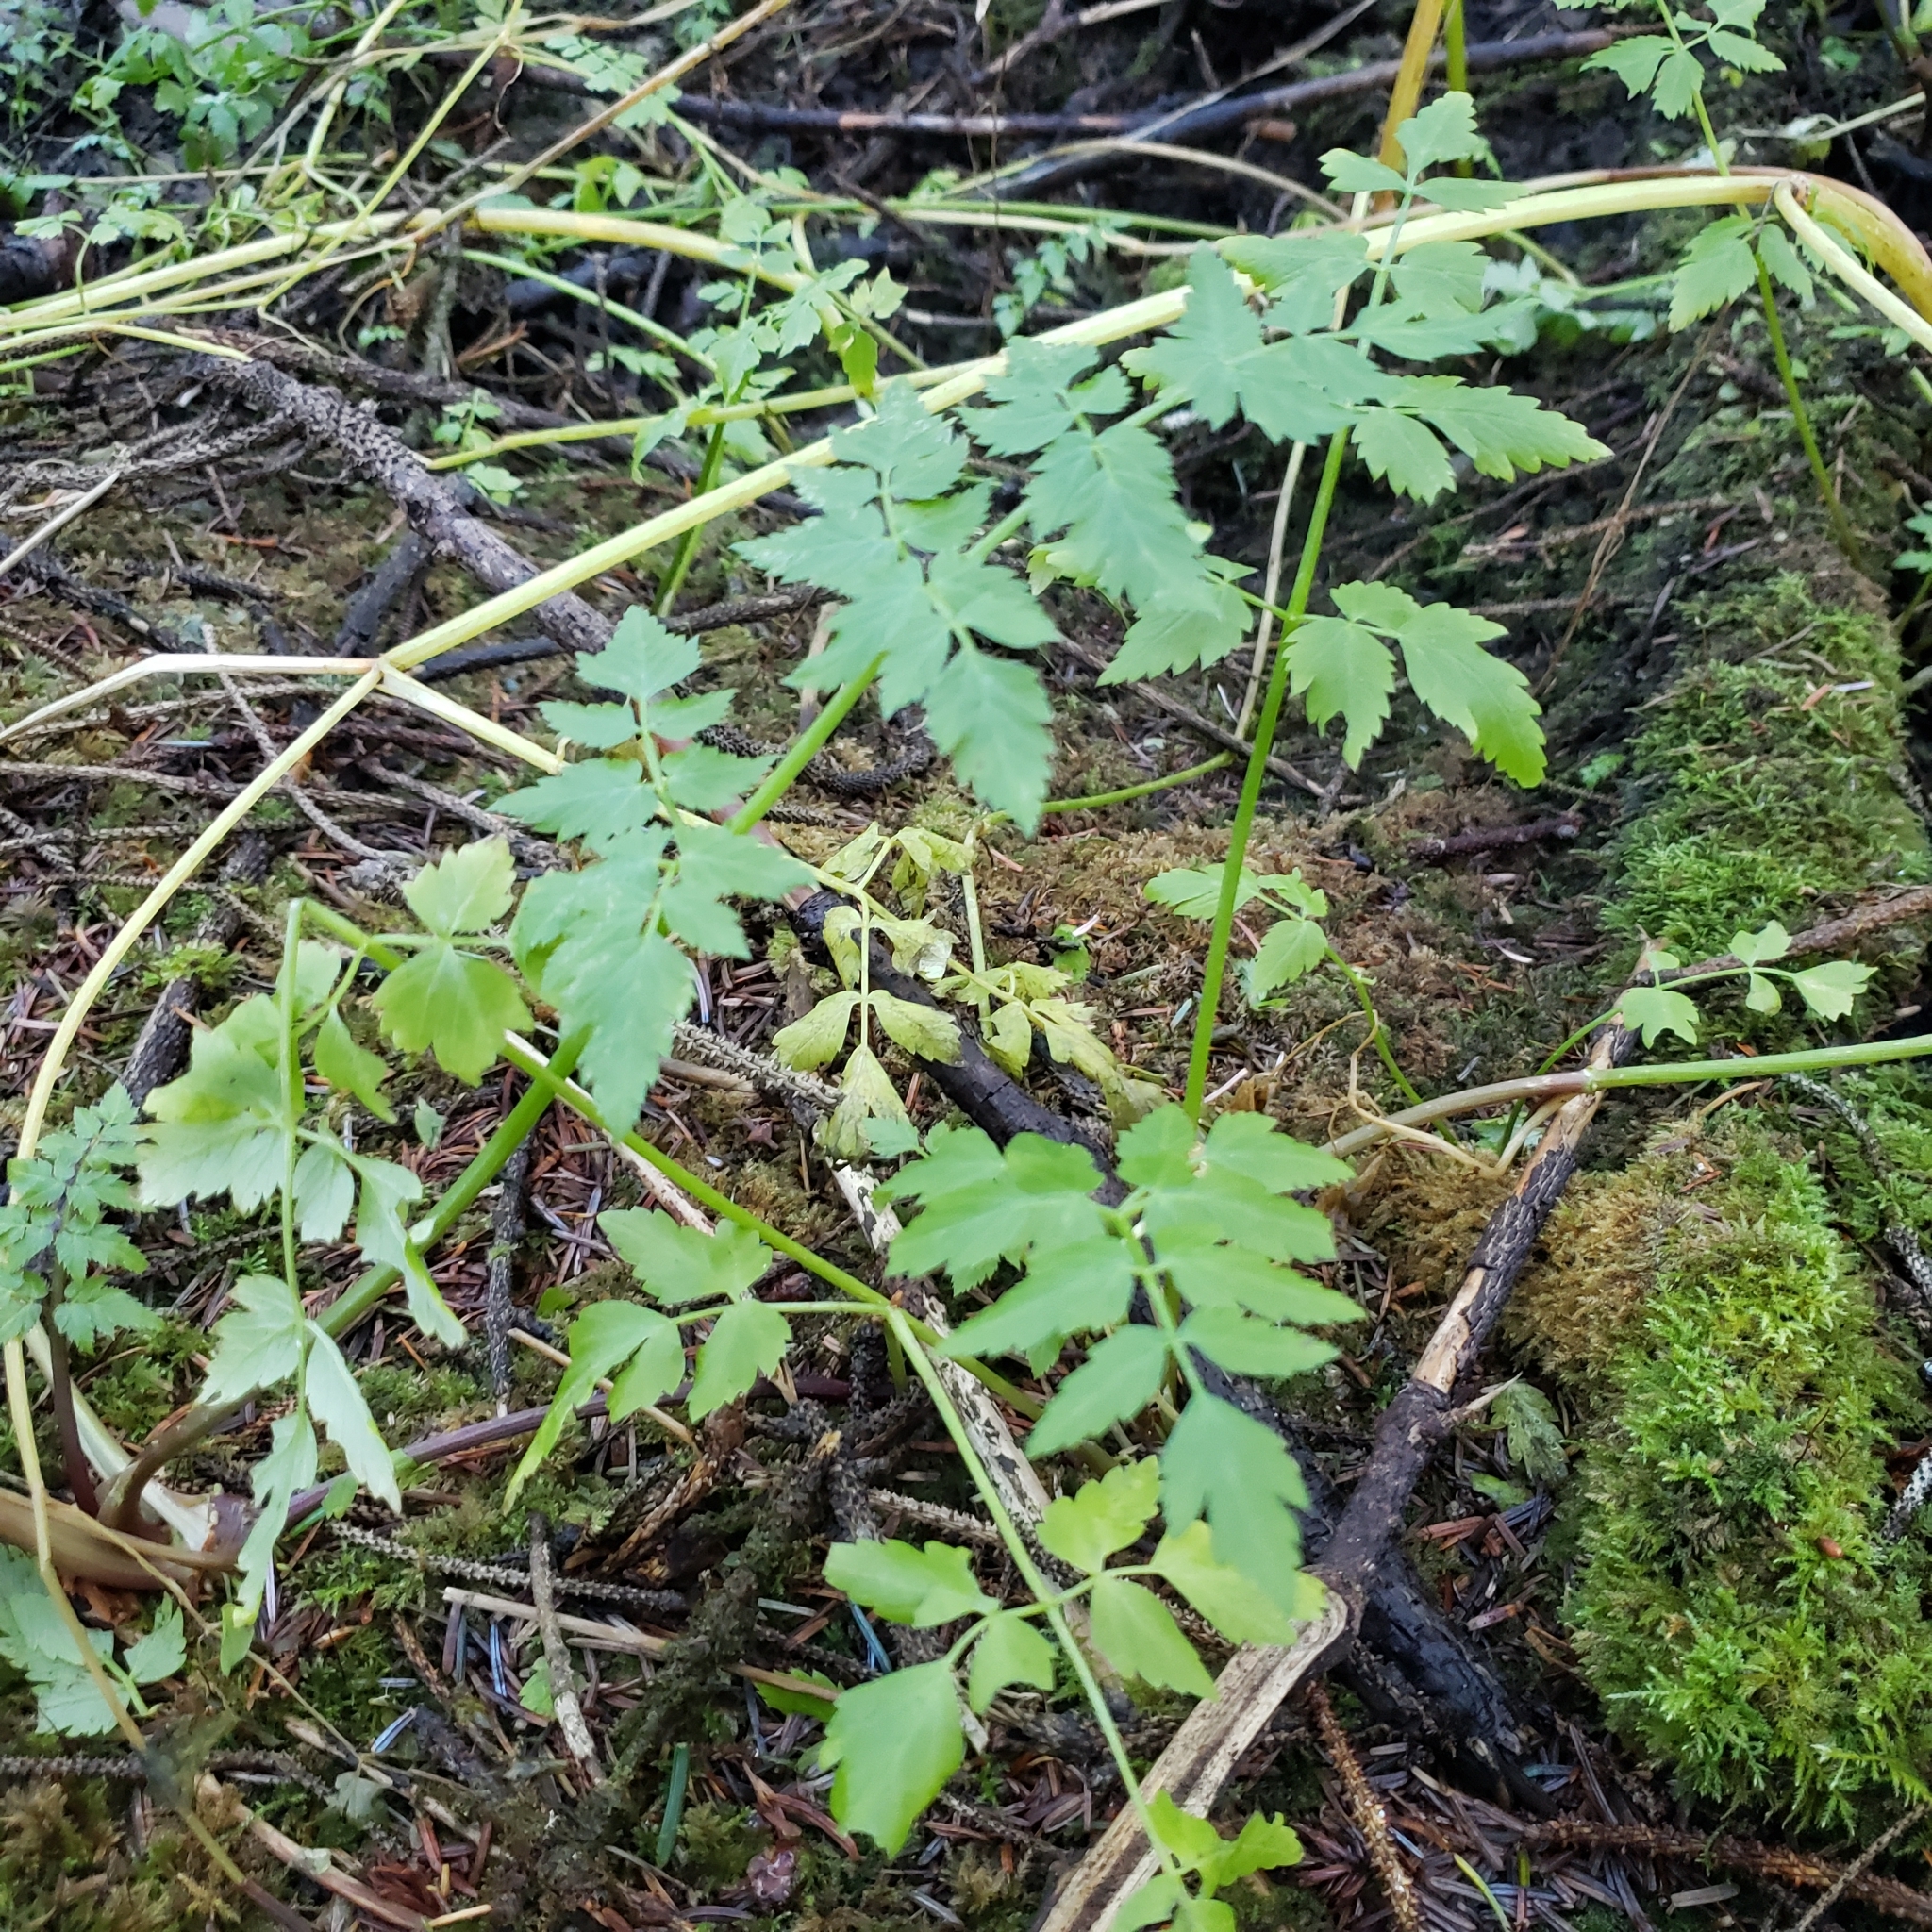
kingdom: Plantae
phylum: Tracheophyta
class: Magnoliopsida
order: Apiales
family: Apiaceae
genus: Oenanthe
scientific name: Oenanthe sarmentosa
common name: American water-parsley
